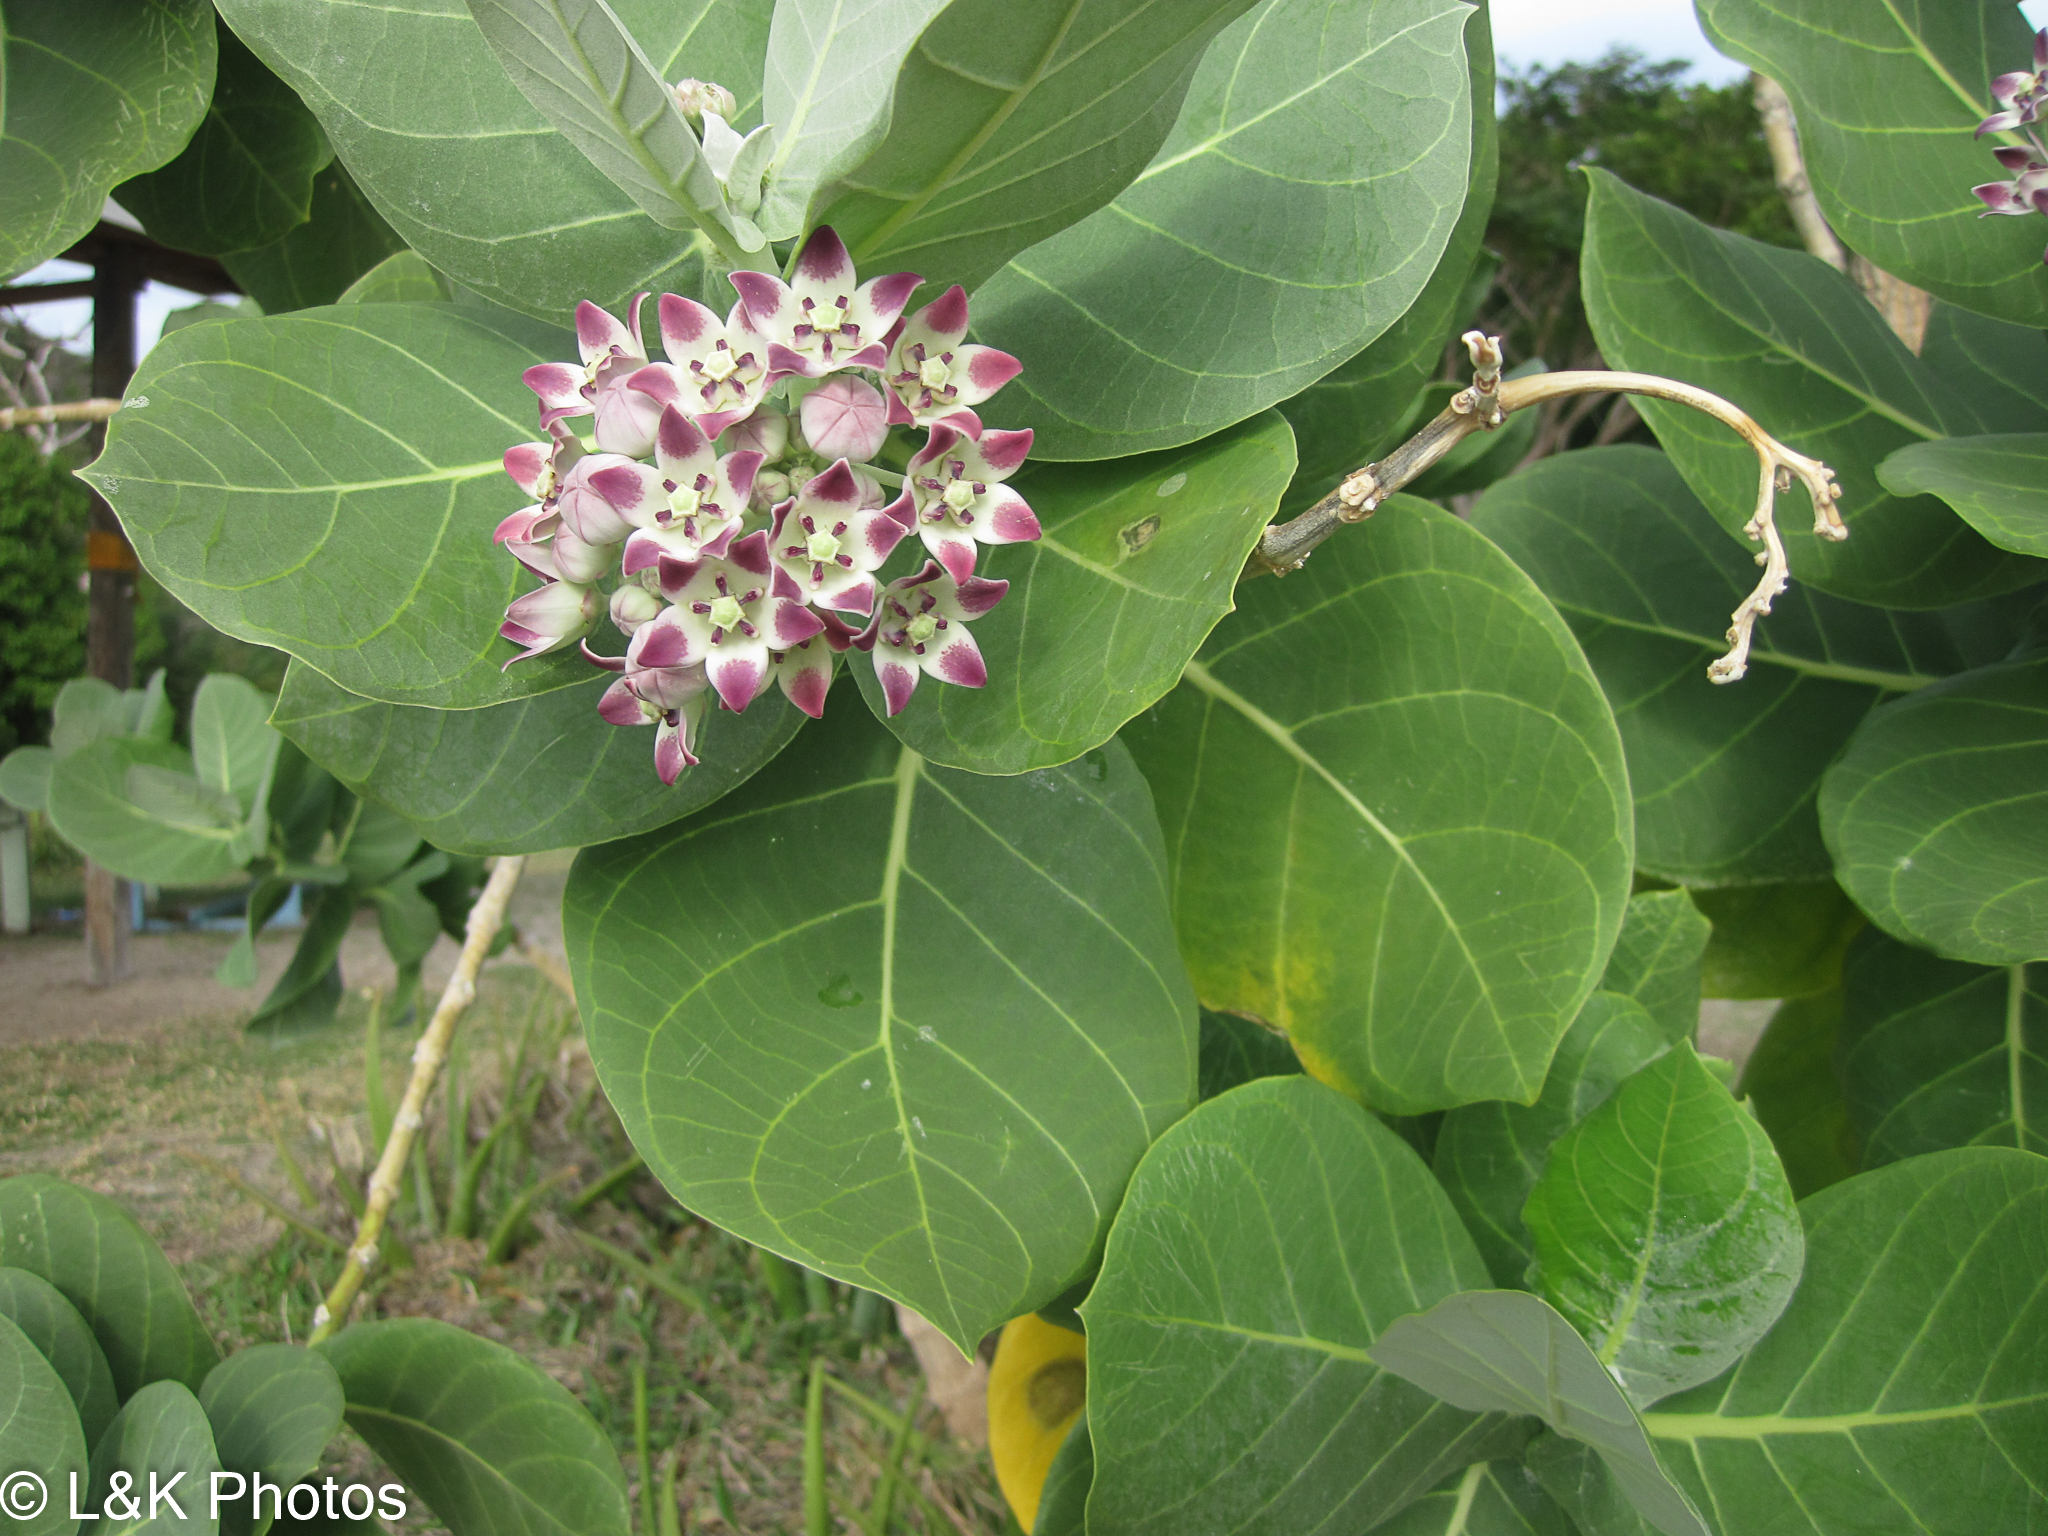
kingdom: Plantae
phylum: Tracheophyta
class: Magnoliopsida
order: Gentianales
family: Apocynaceae
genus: Calotropis
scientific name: Calotropis procera
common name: Roostertree
